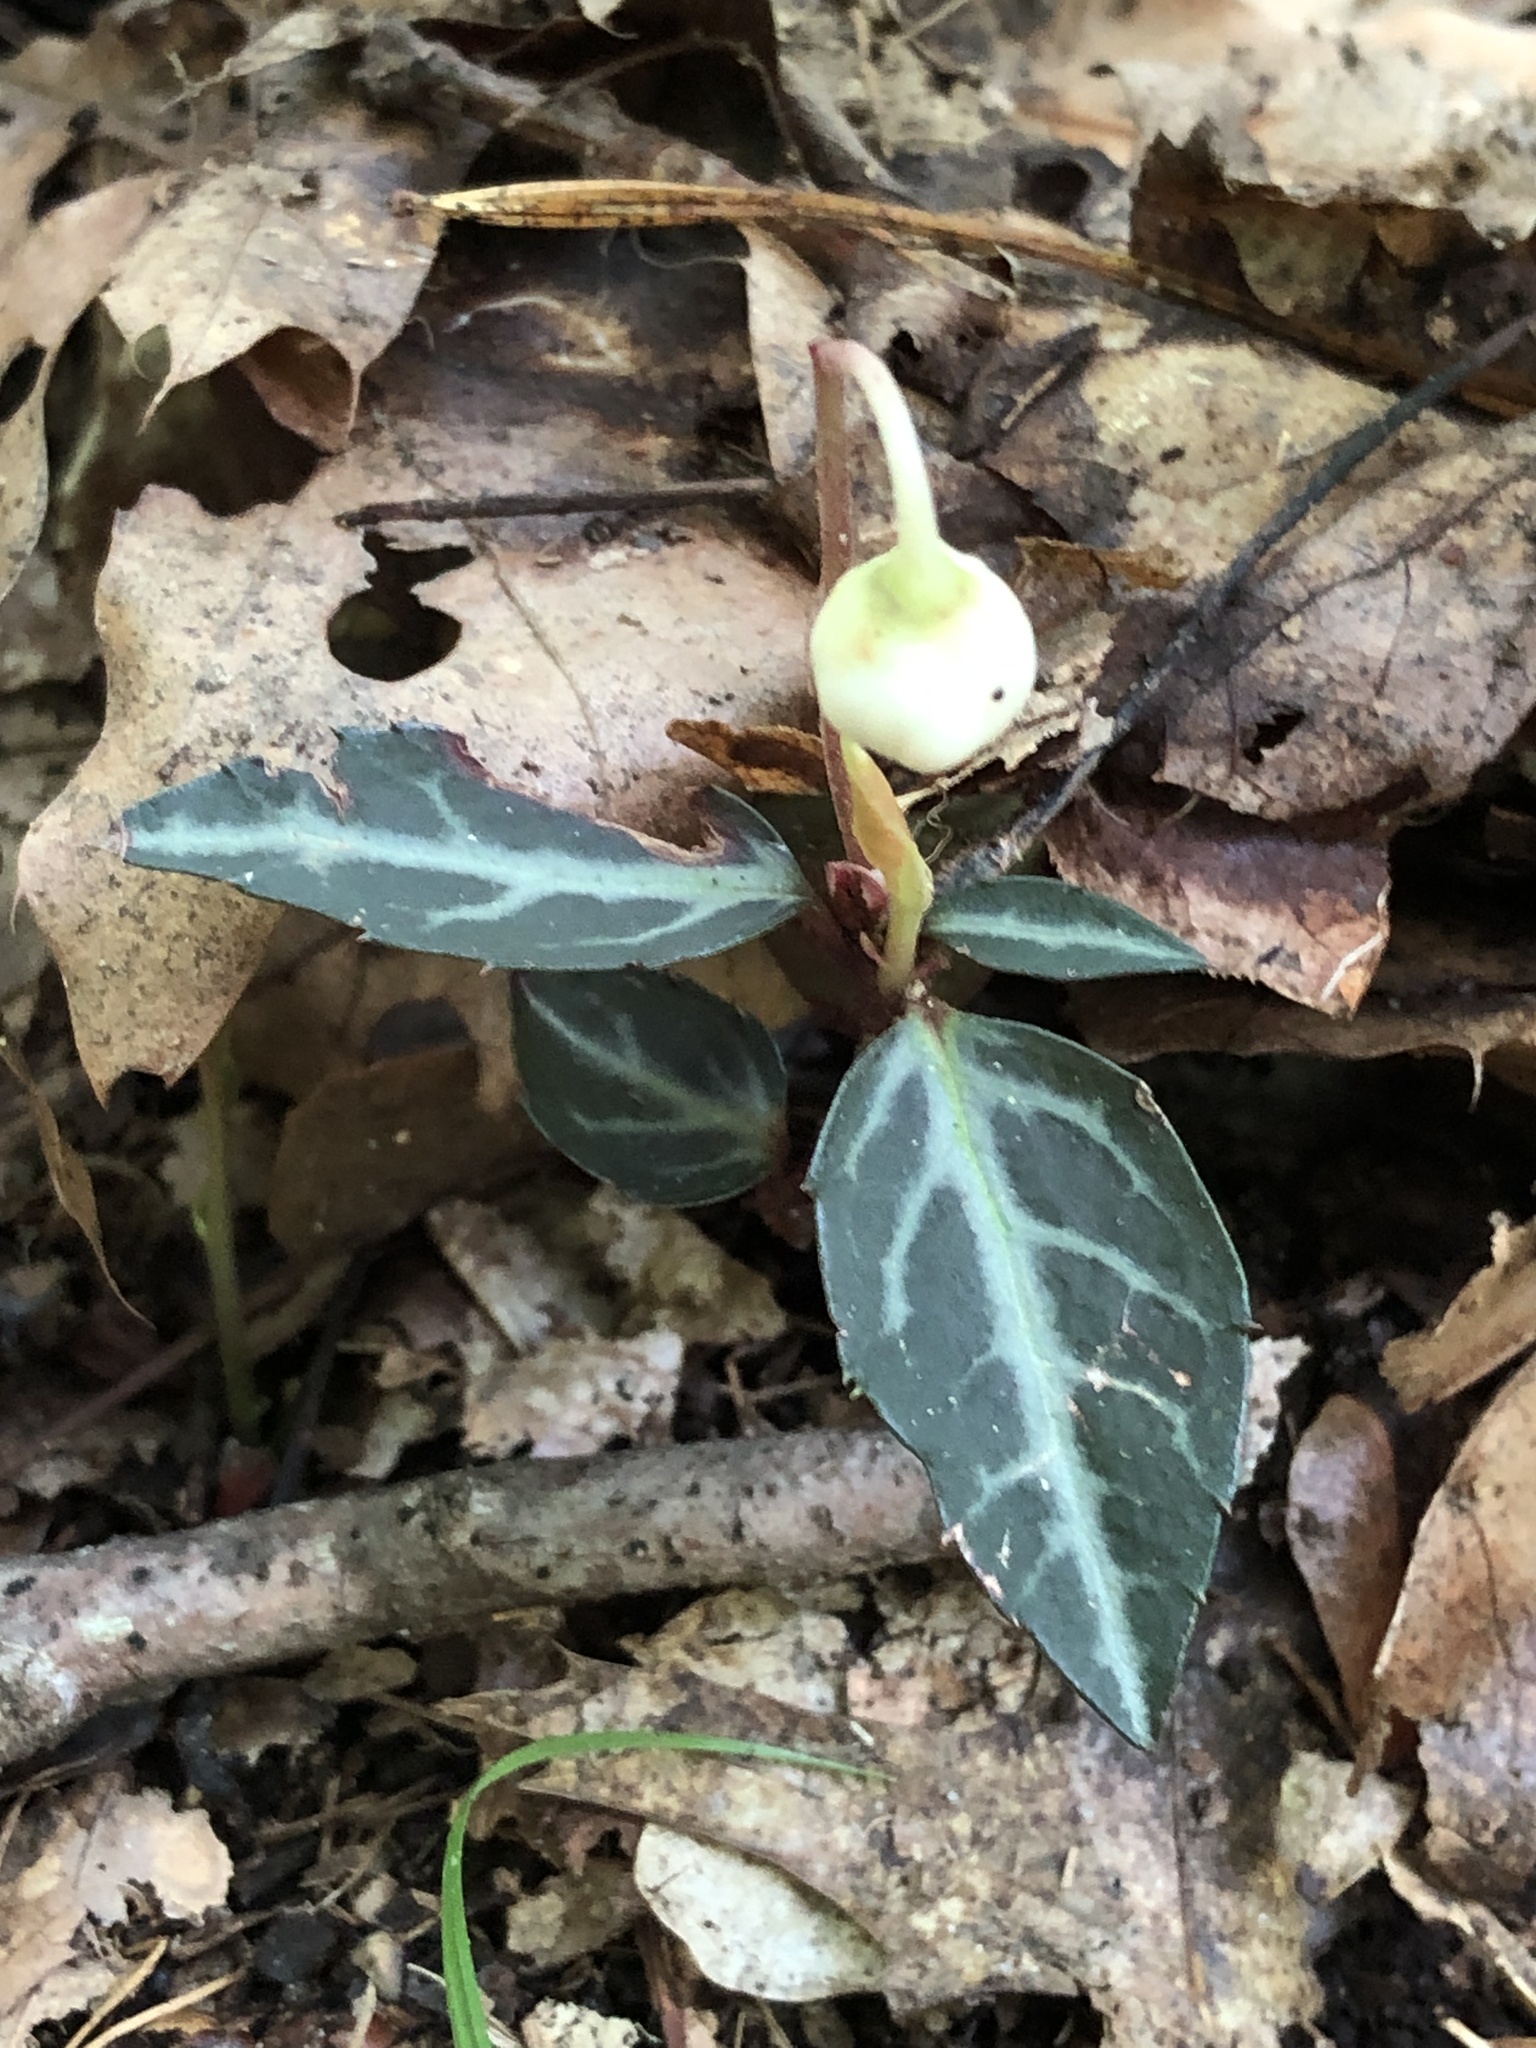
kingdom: Plantae
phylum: Tracheophyta
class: Magnoliopsida
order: Ericales
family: Ericaceae
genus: Chimaphila
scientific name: Chimaphila maculata
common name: Spotted pipsissewa
